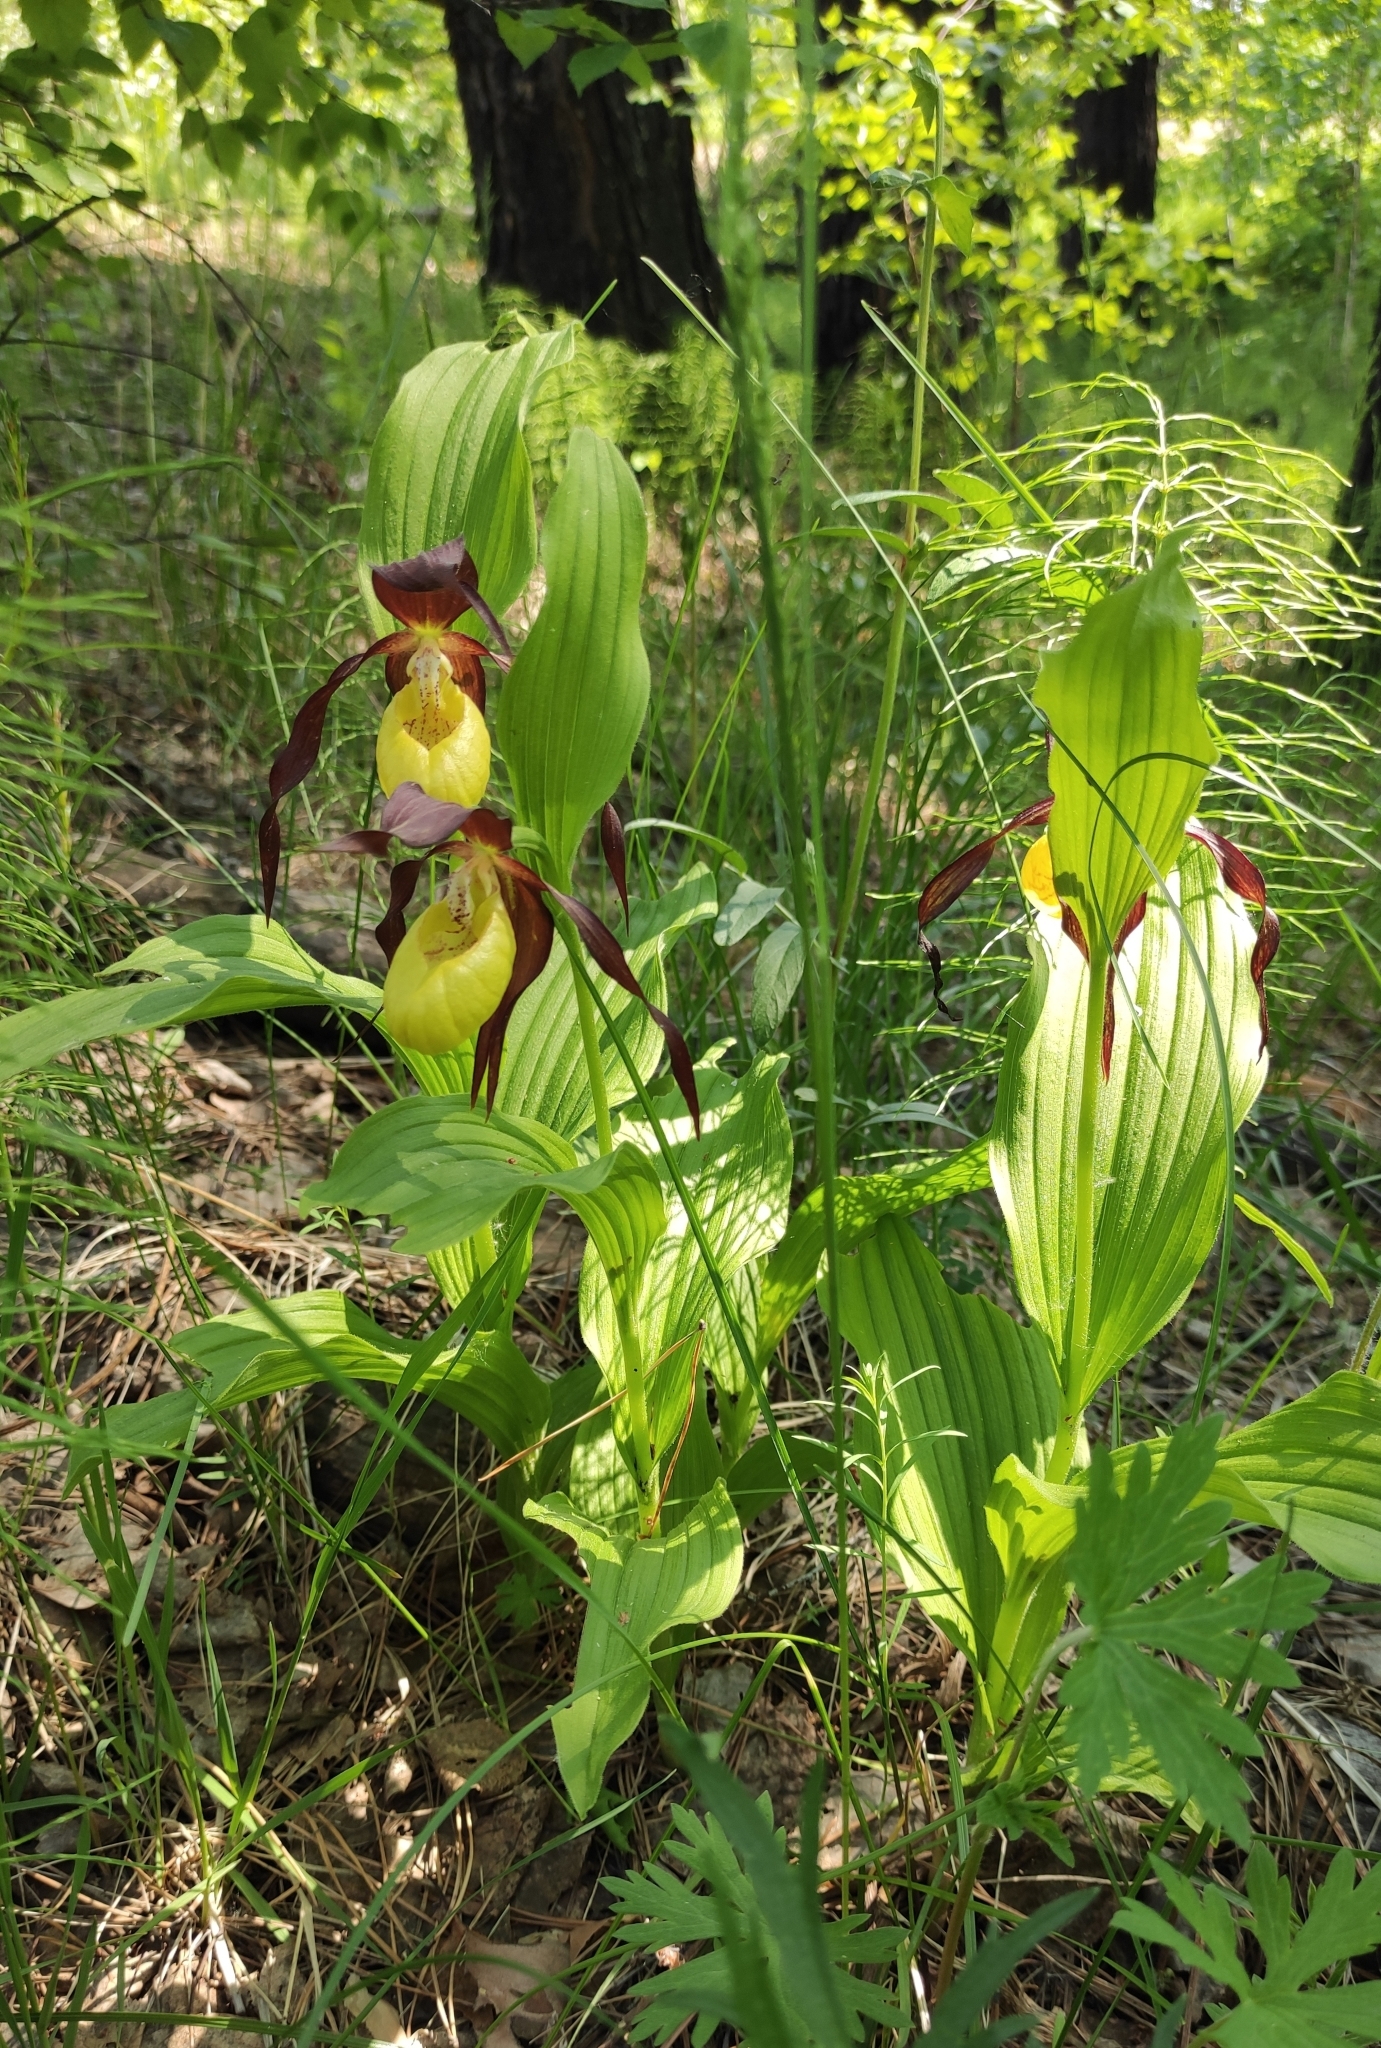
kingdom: Plantae
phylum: Tracheophyta
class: Liliopsida
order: Asparagales
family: Orchidaceae
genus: Cypripedium
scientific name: Cypripedium calceolus
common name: Lady's-slipper
